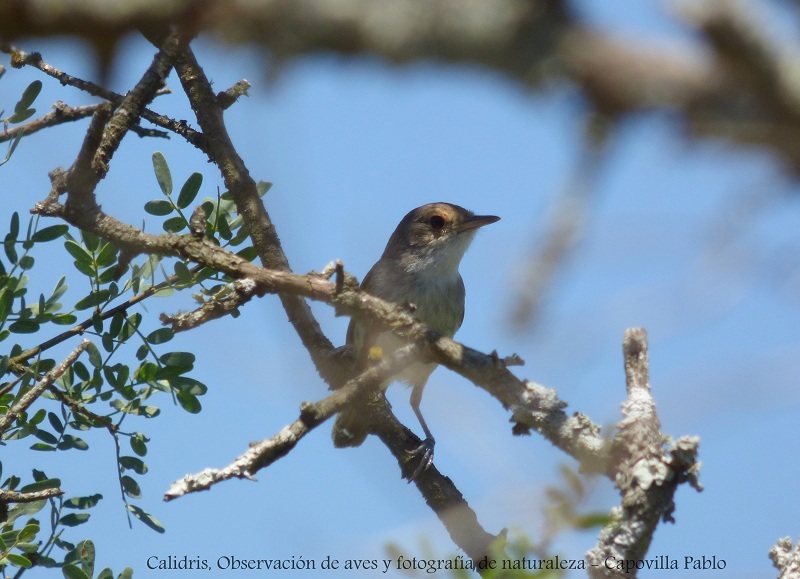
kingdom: Animalia
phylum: Chordata
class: Aves
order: Passeriformes
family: Tyrannidae
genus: Euscarthmus
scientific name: Euscarthmus meloryphus
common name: Tawny-crowned pygmy tyrant
